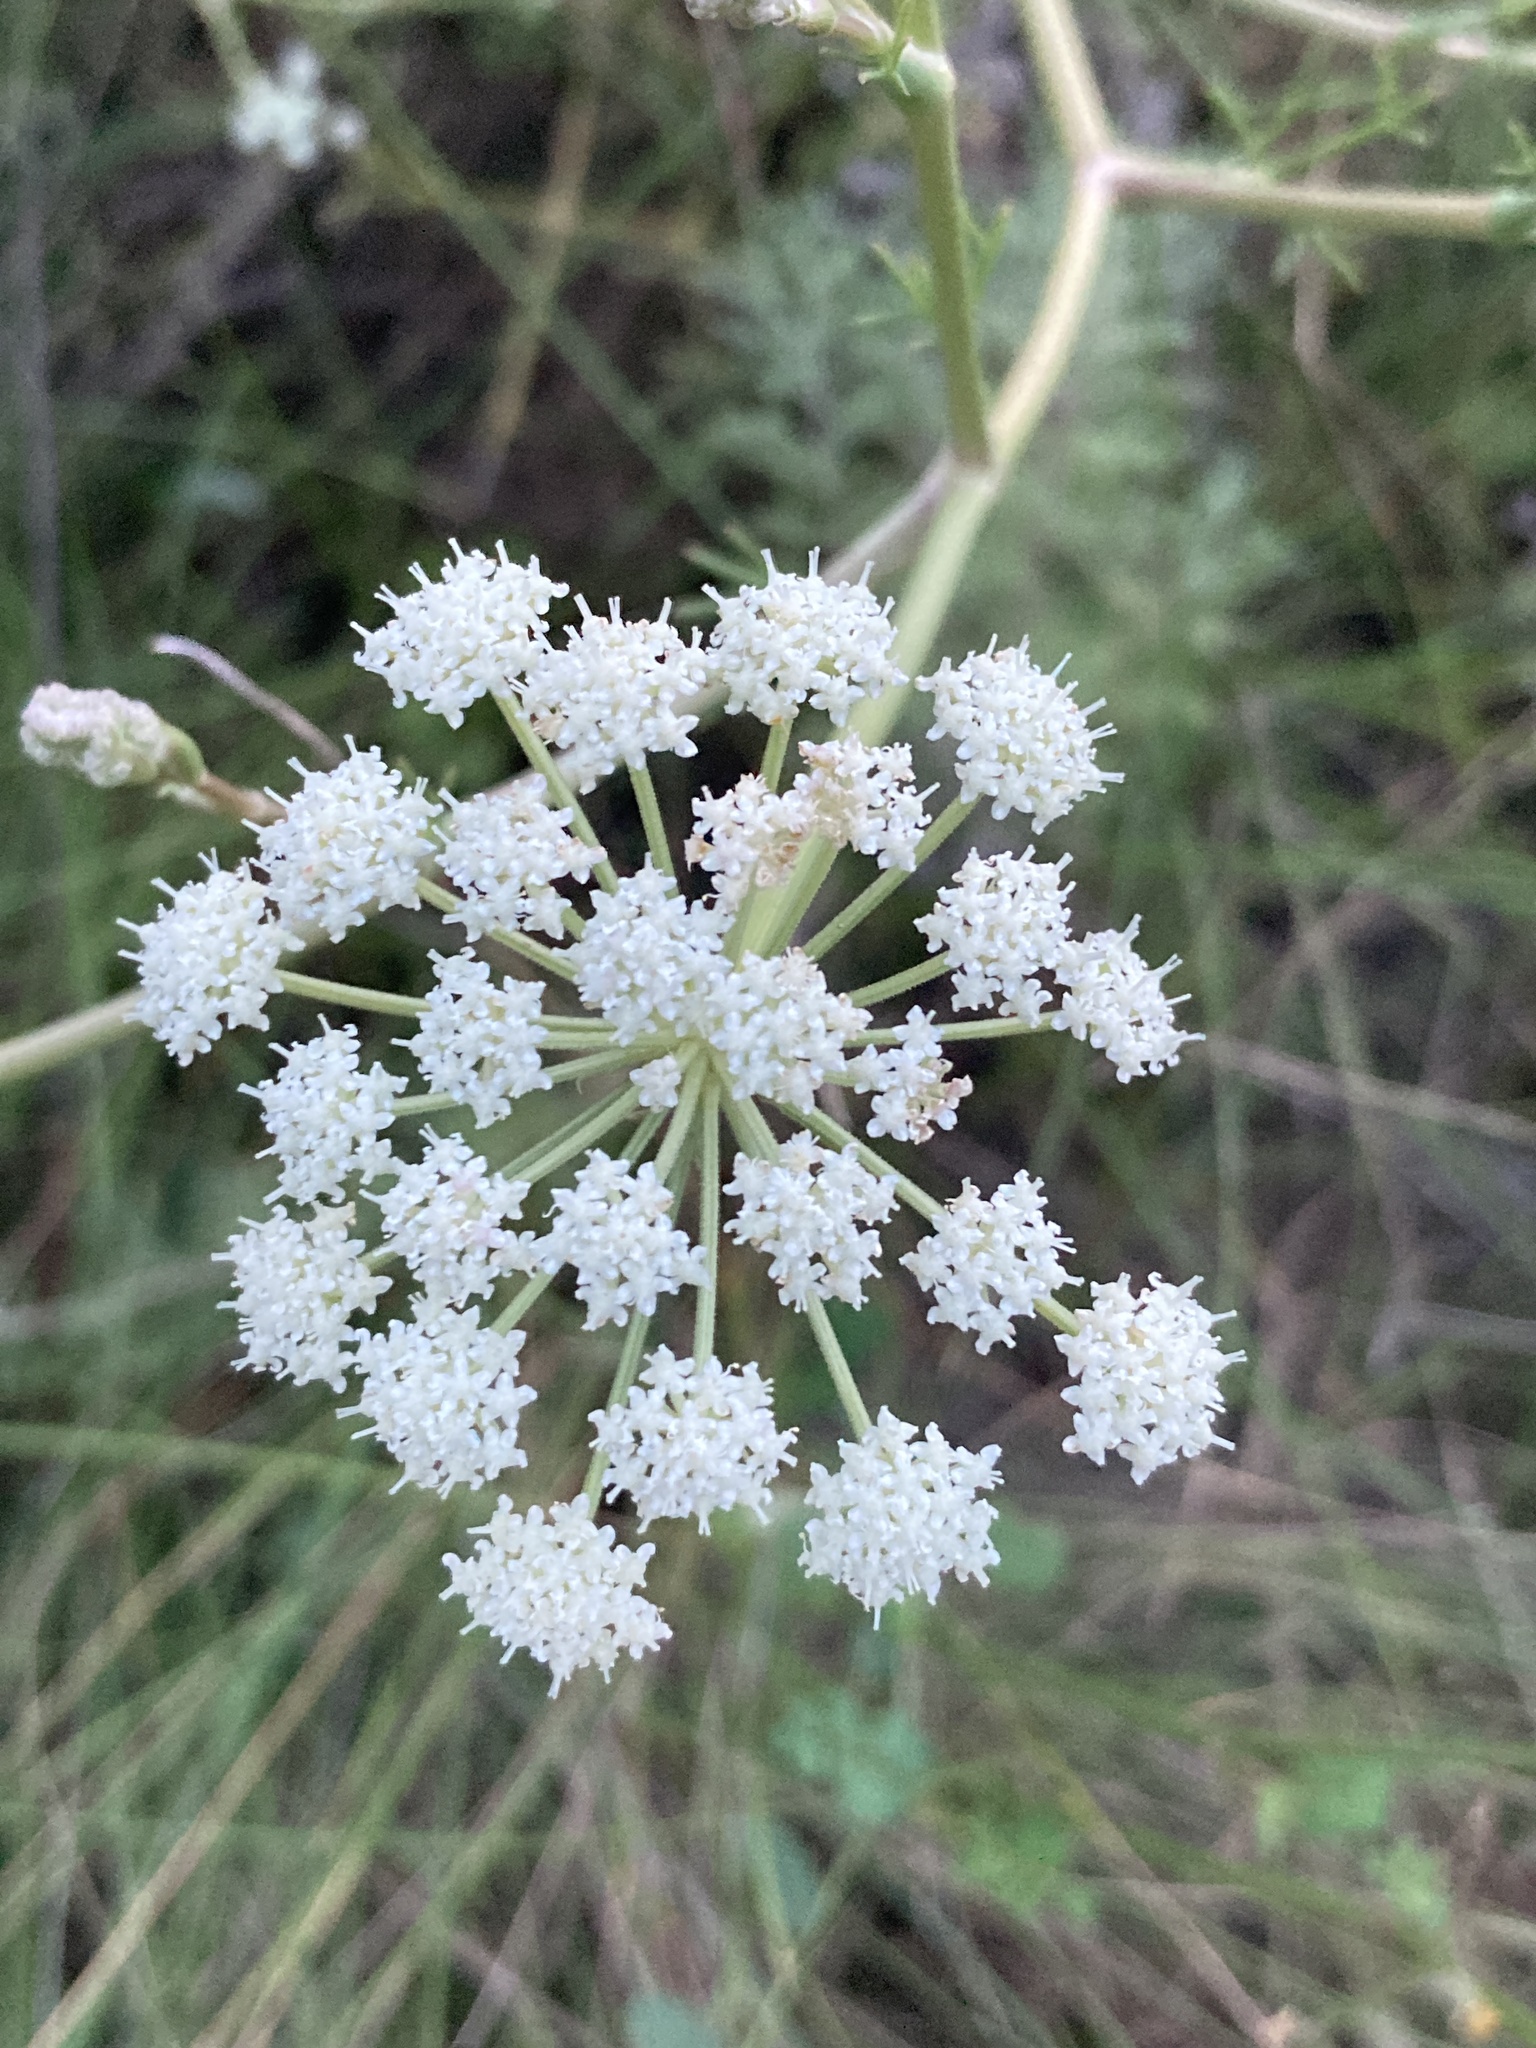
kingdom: Plantae
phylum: Tracheophyta
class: Magnoliopsida
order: Apiales
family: Apiaceae
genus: Seseli
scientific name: Seseli arenarium
